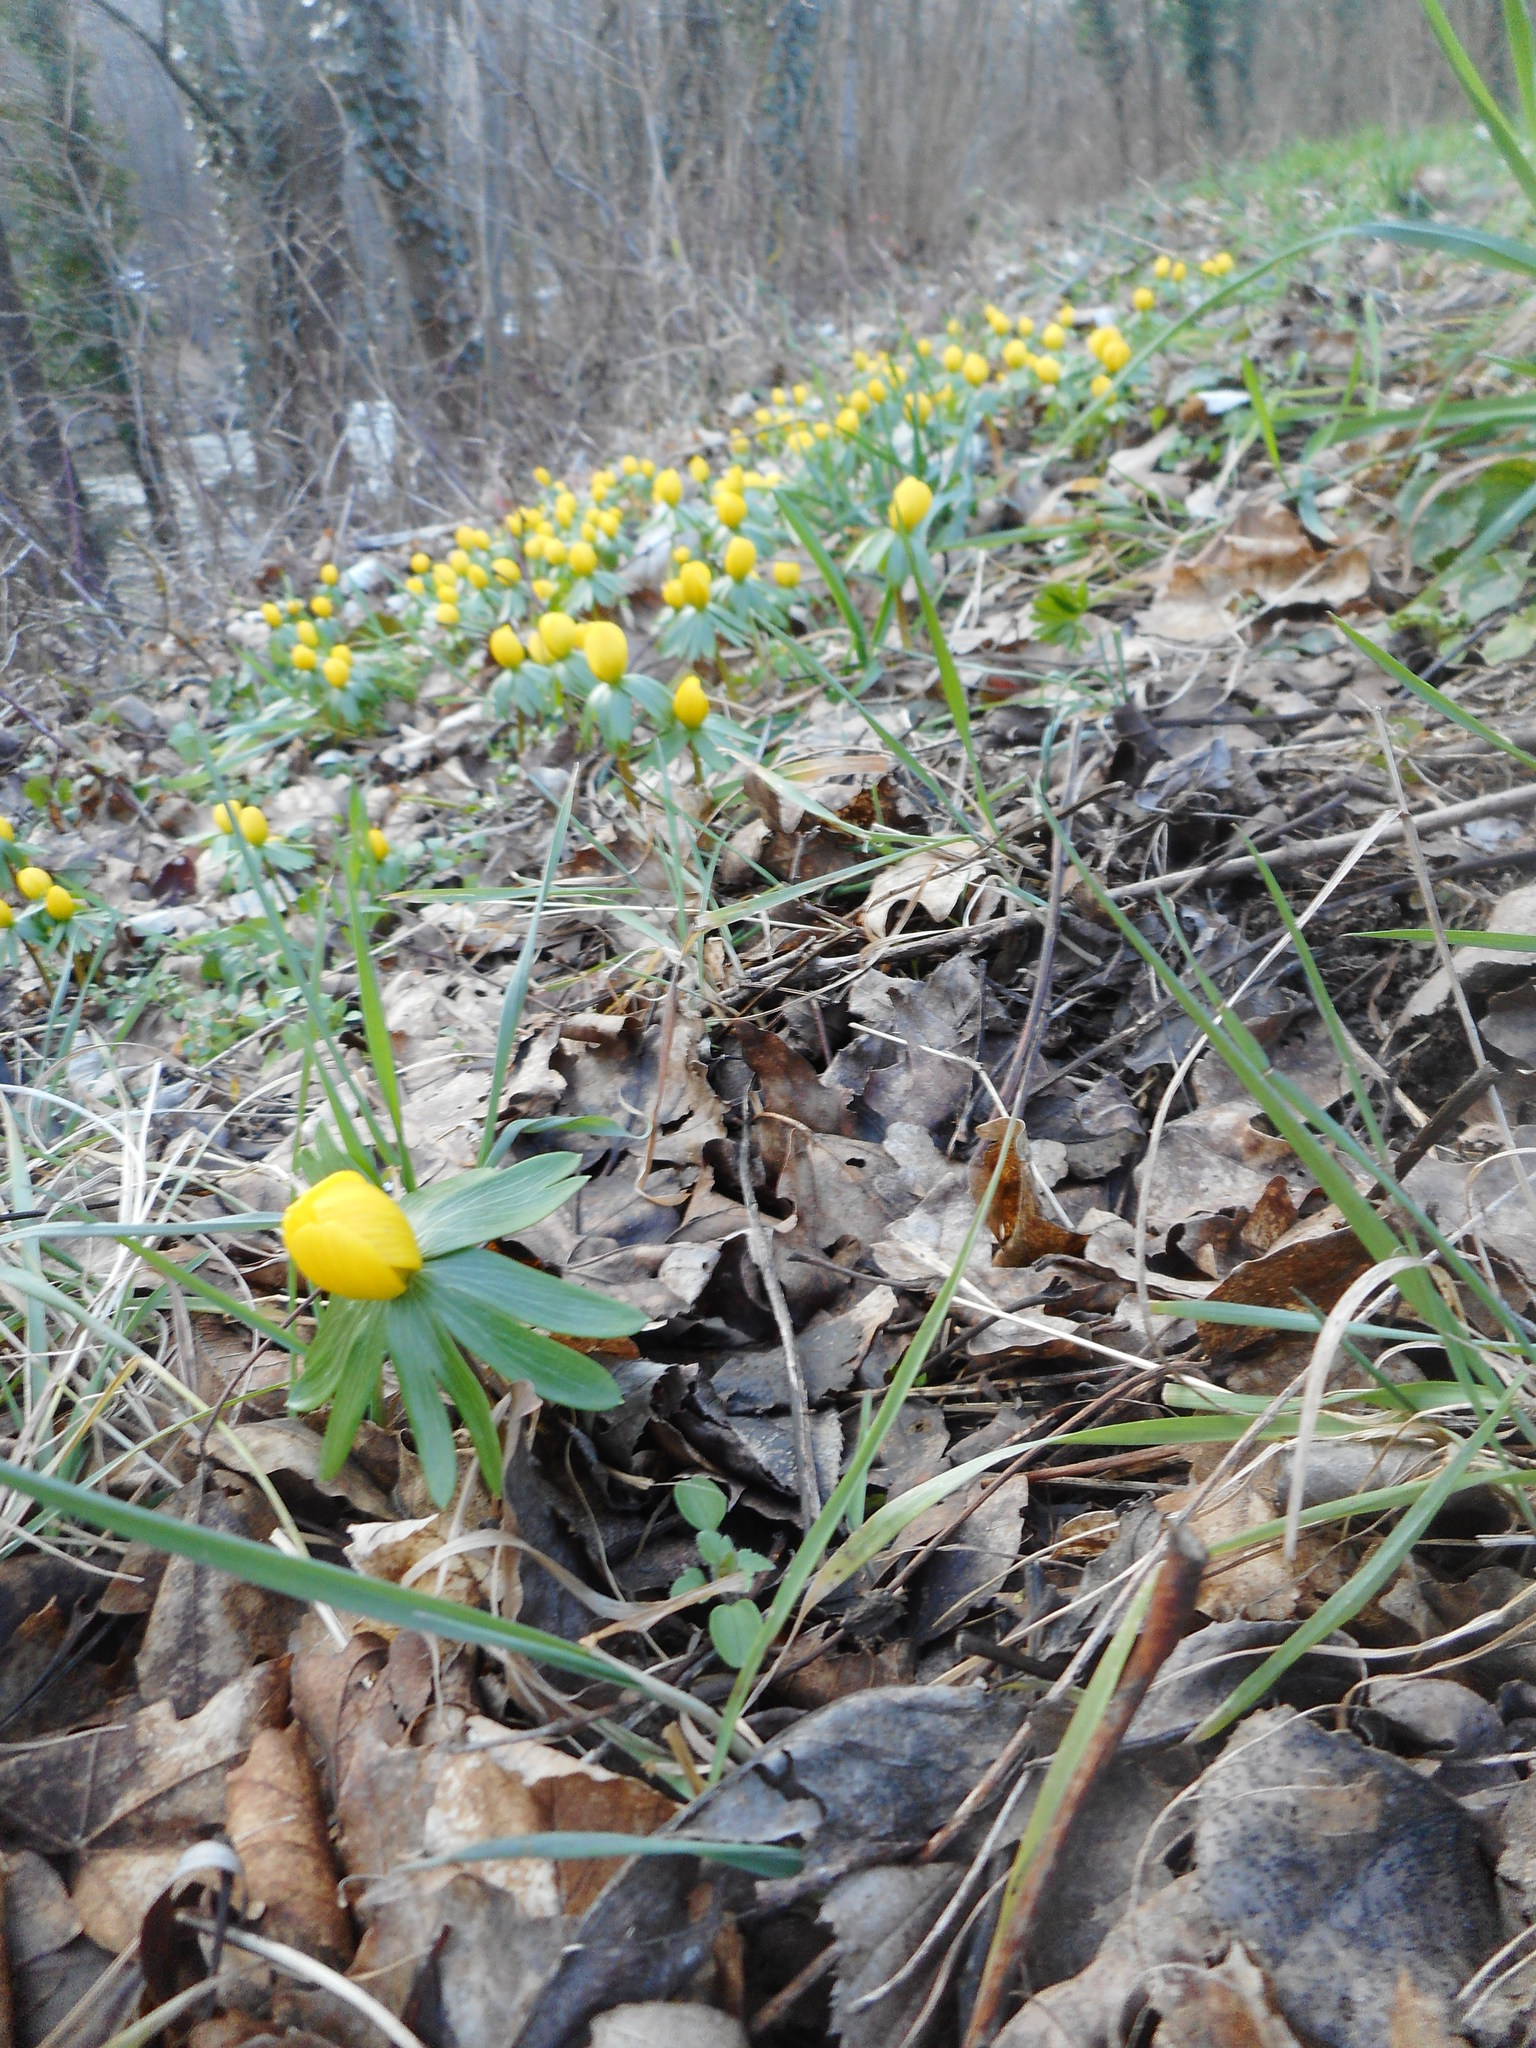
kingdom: Plantae
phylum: Tracheophyta
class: Magnoliopsida
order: Ranunculales
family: Ranunculaceae
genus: Eranthis
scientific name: Eranthis hyemalis
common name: Winter aconite
